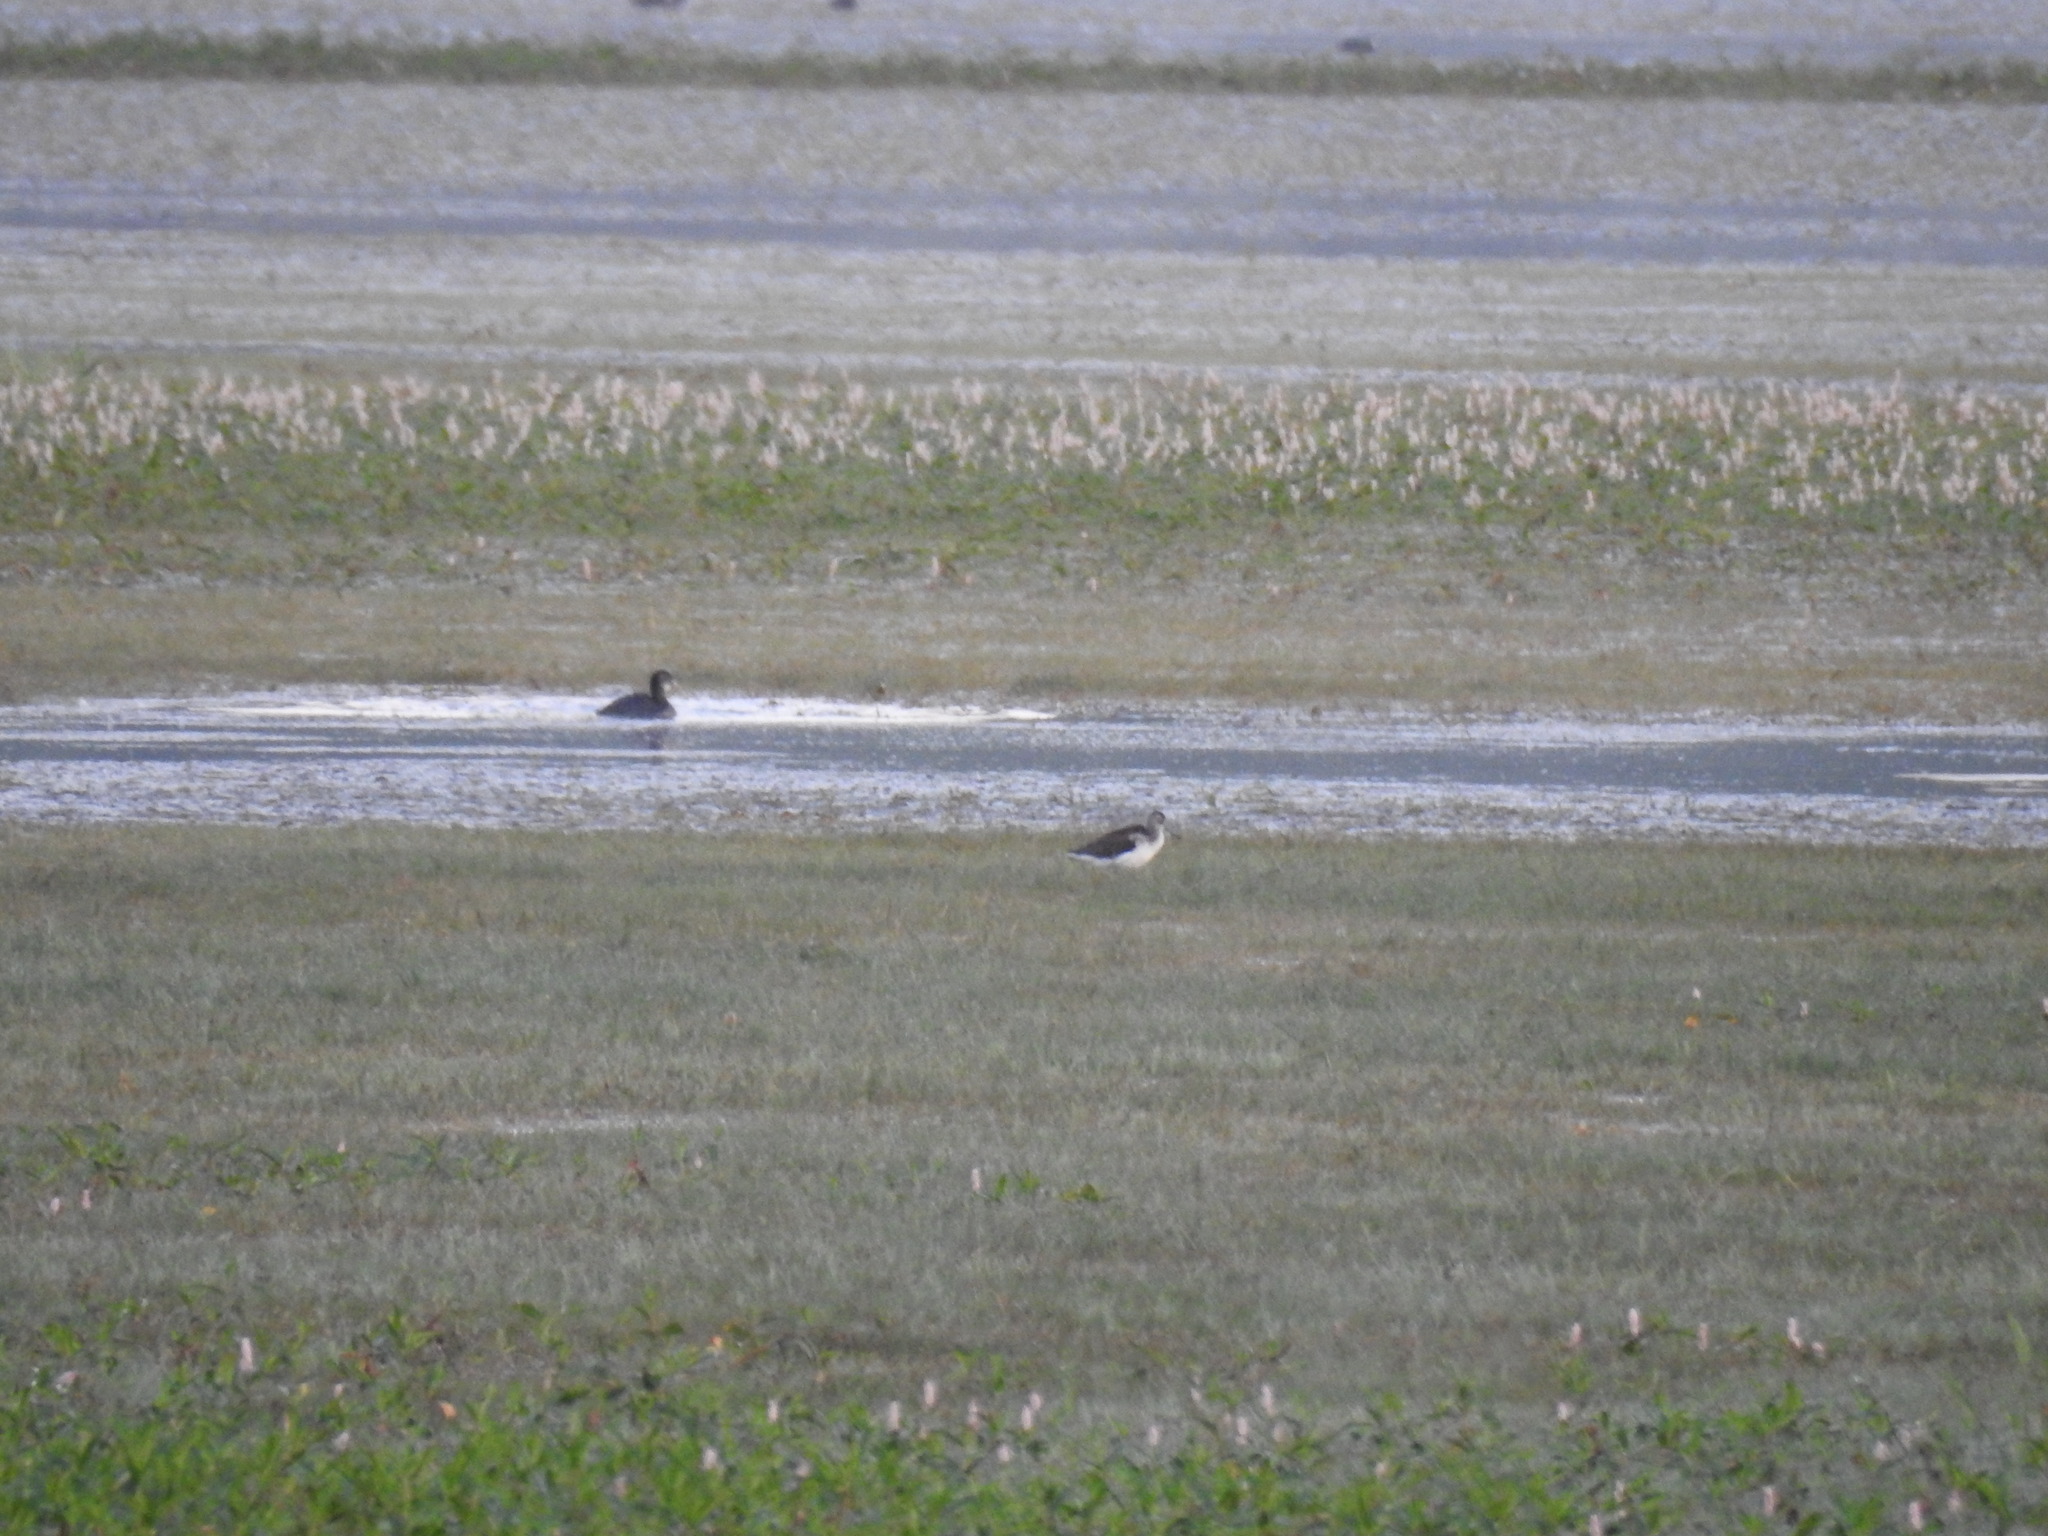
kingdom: Animalia
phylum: Chordata
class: Aves
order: Charadriiformes
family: Scolopacidae
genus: Tringa
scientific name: Tringa nebularia
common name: Common greenshank
